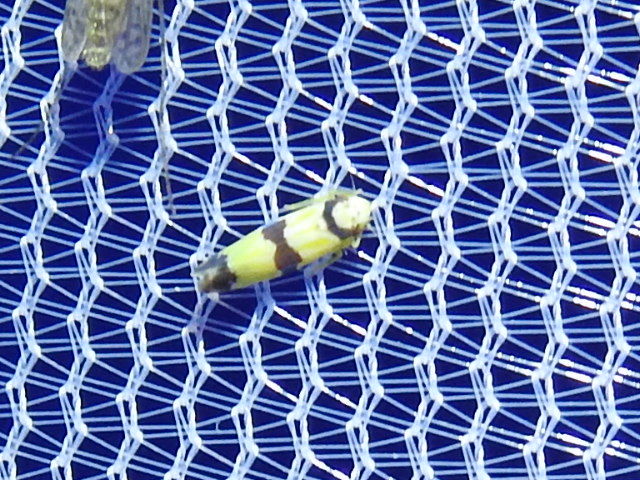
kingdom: Animalia
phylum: Arthropoda
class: Insecta
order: Hemiptera
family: Cicadellidae
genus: Erythroneura
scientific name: Erythroneura calycula
